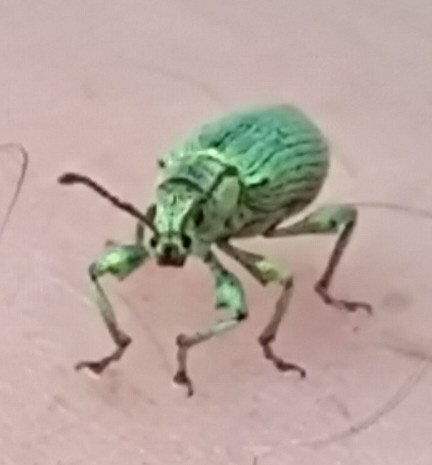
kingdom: Animalia
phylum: Arthropoda
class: Insecta
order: Coleoptera
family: Curculionidae
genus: Phyllobius
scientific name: Phyllobius maculicornis
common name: Green leaf weevil
